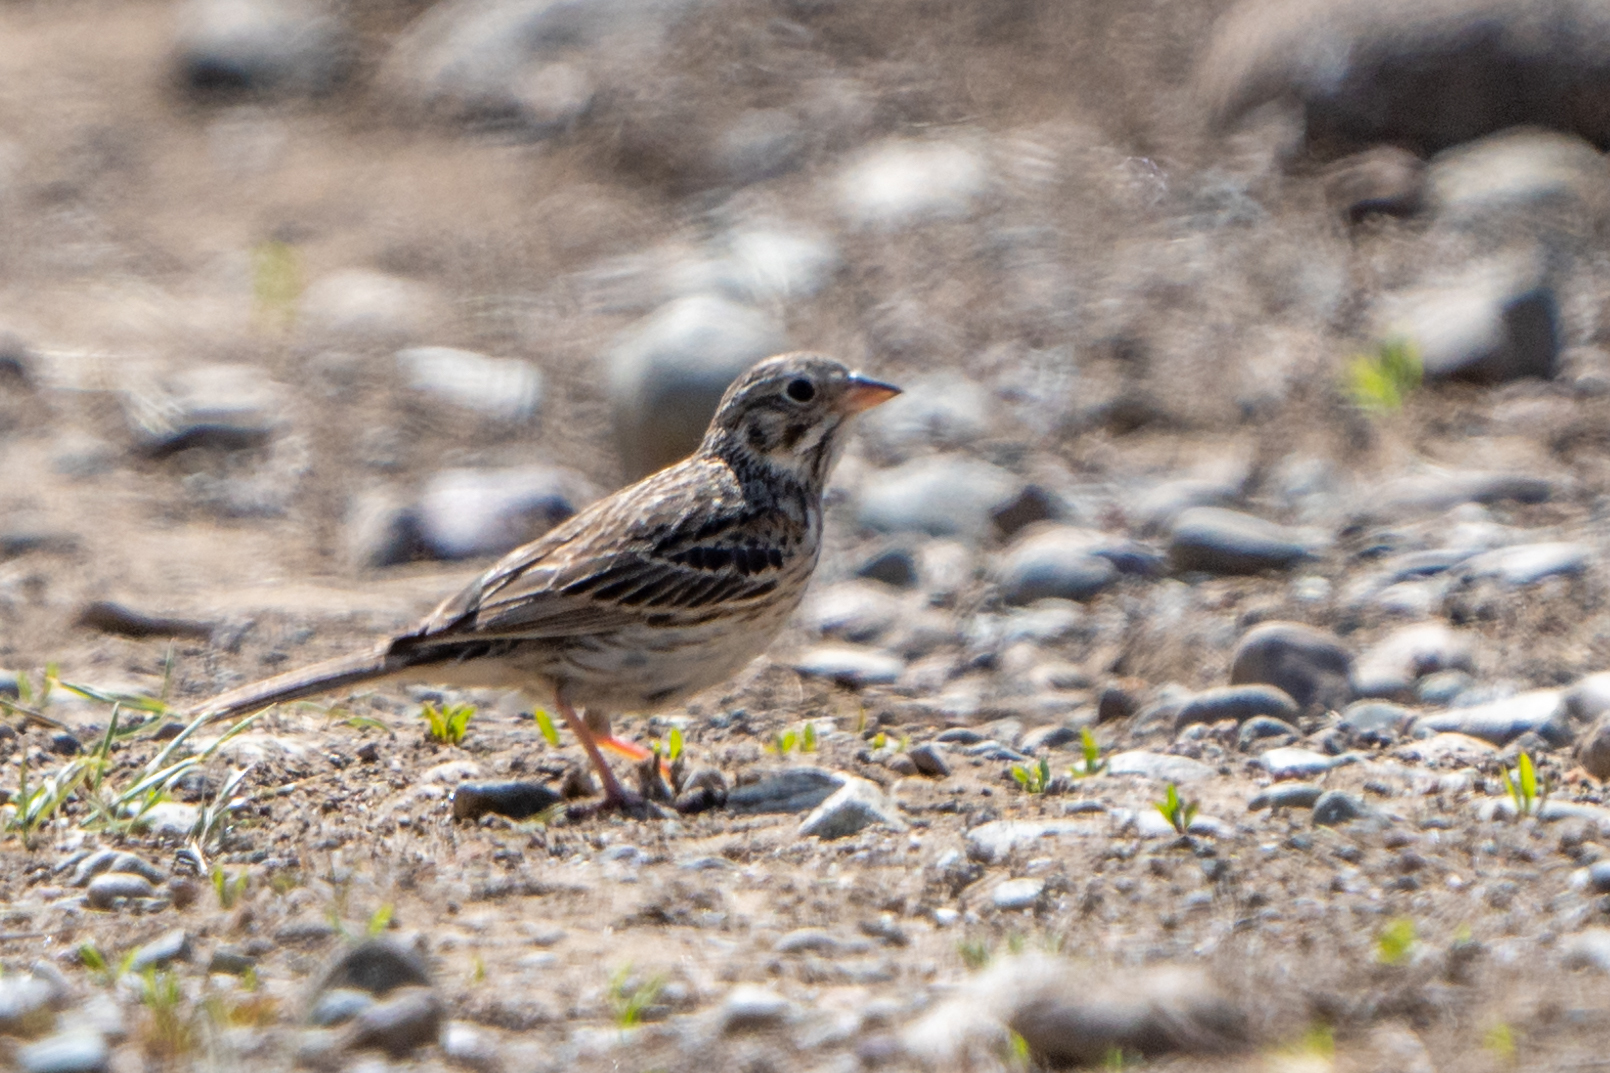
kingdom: Animalia
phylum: Chordata
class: Aves
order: Passeriformes
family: Passerellidae
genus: Pooecetes
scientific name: Pooecetes gramineus
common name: Vesper sparrow
